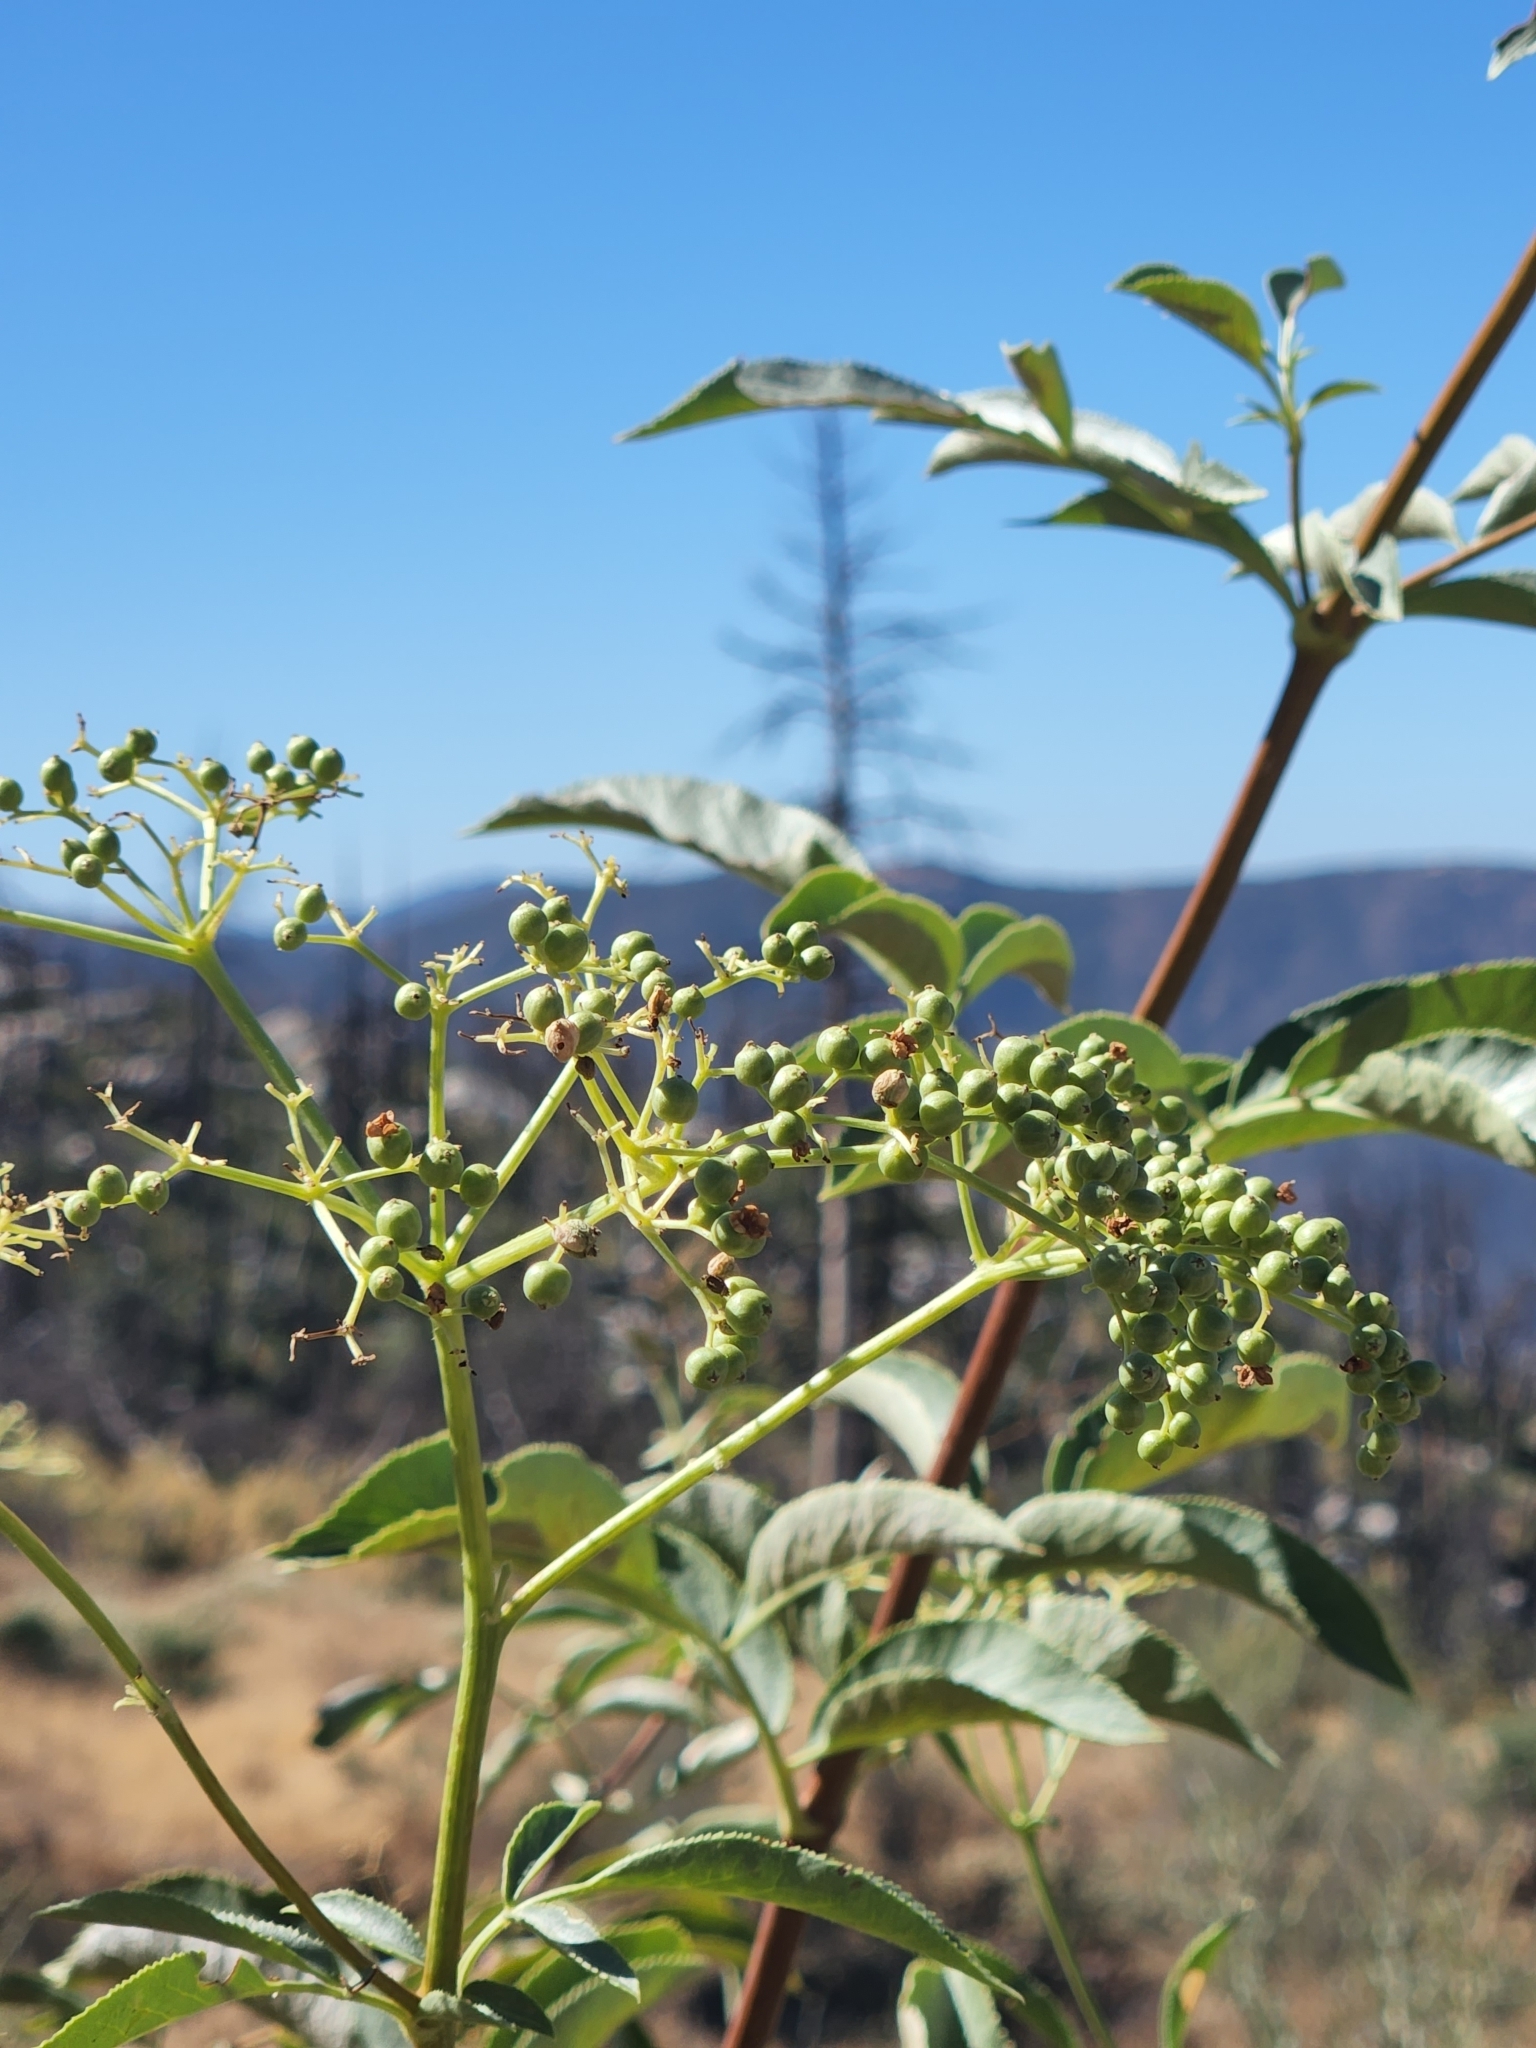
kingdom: Plantae
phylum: Tracheophyta
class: Magnoliopsida
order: Dipsacales
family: Viburnaceae
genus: Sambucus
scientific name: Sambucus cerulea
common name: Blue elder
